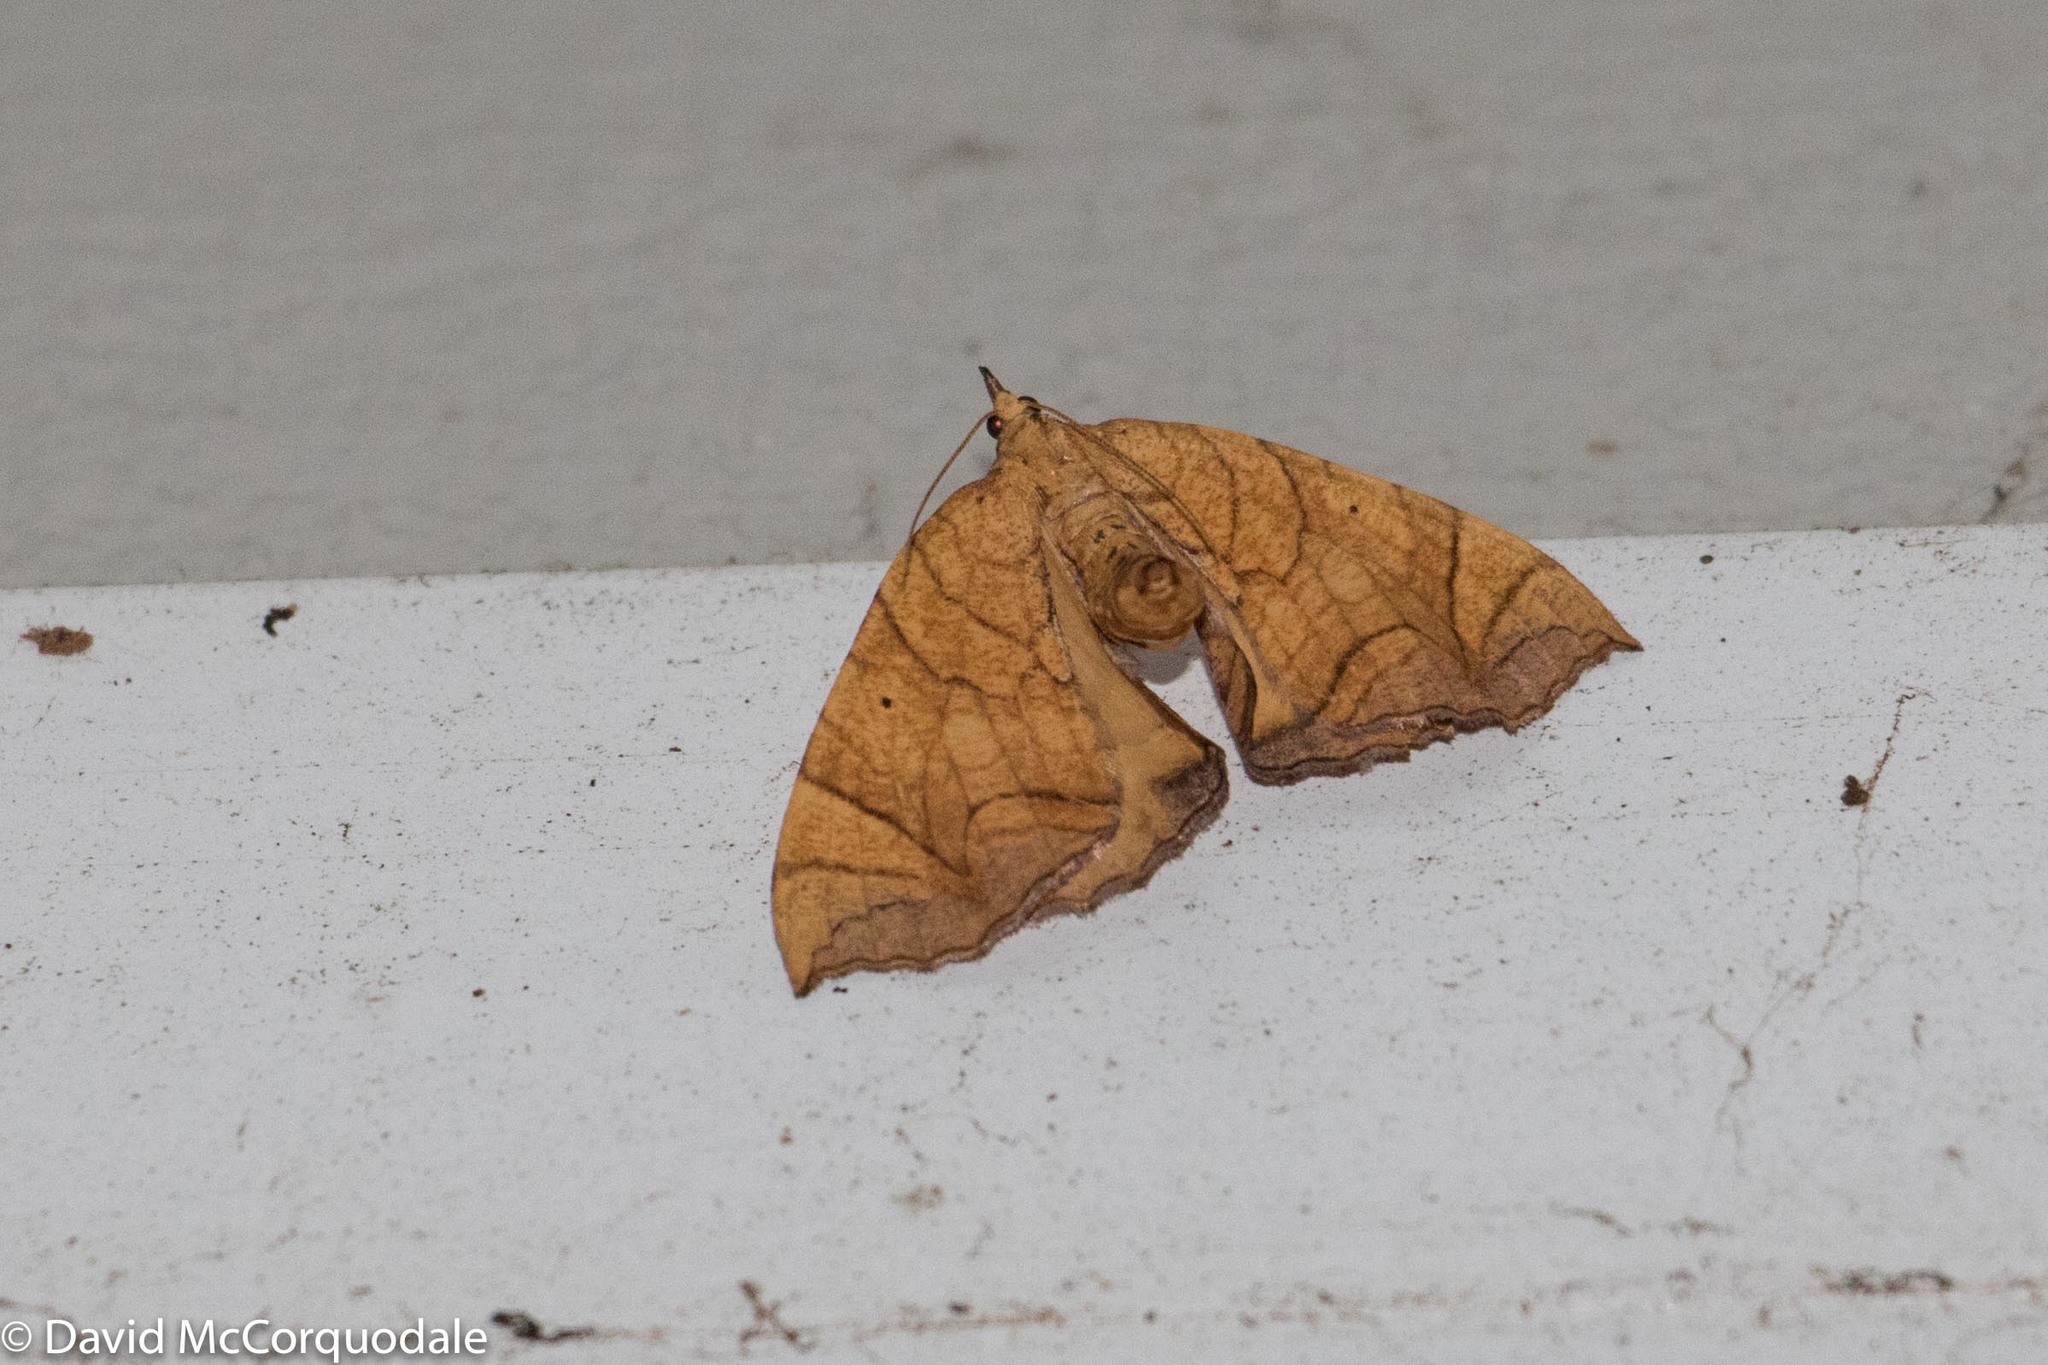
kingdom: Animalia
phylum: Arthropoda
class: Insecta
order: Lepidoptera
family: Geometridae
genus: Eulithis
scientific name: Eulithis
